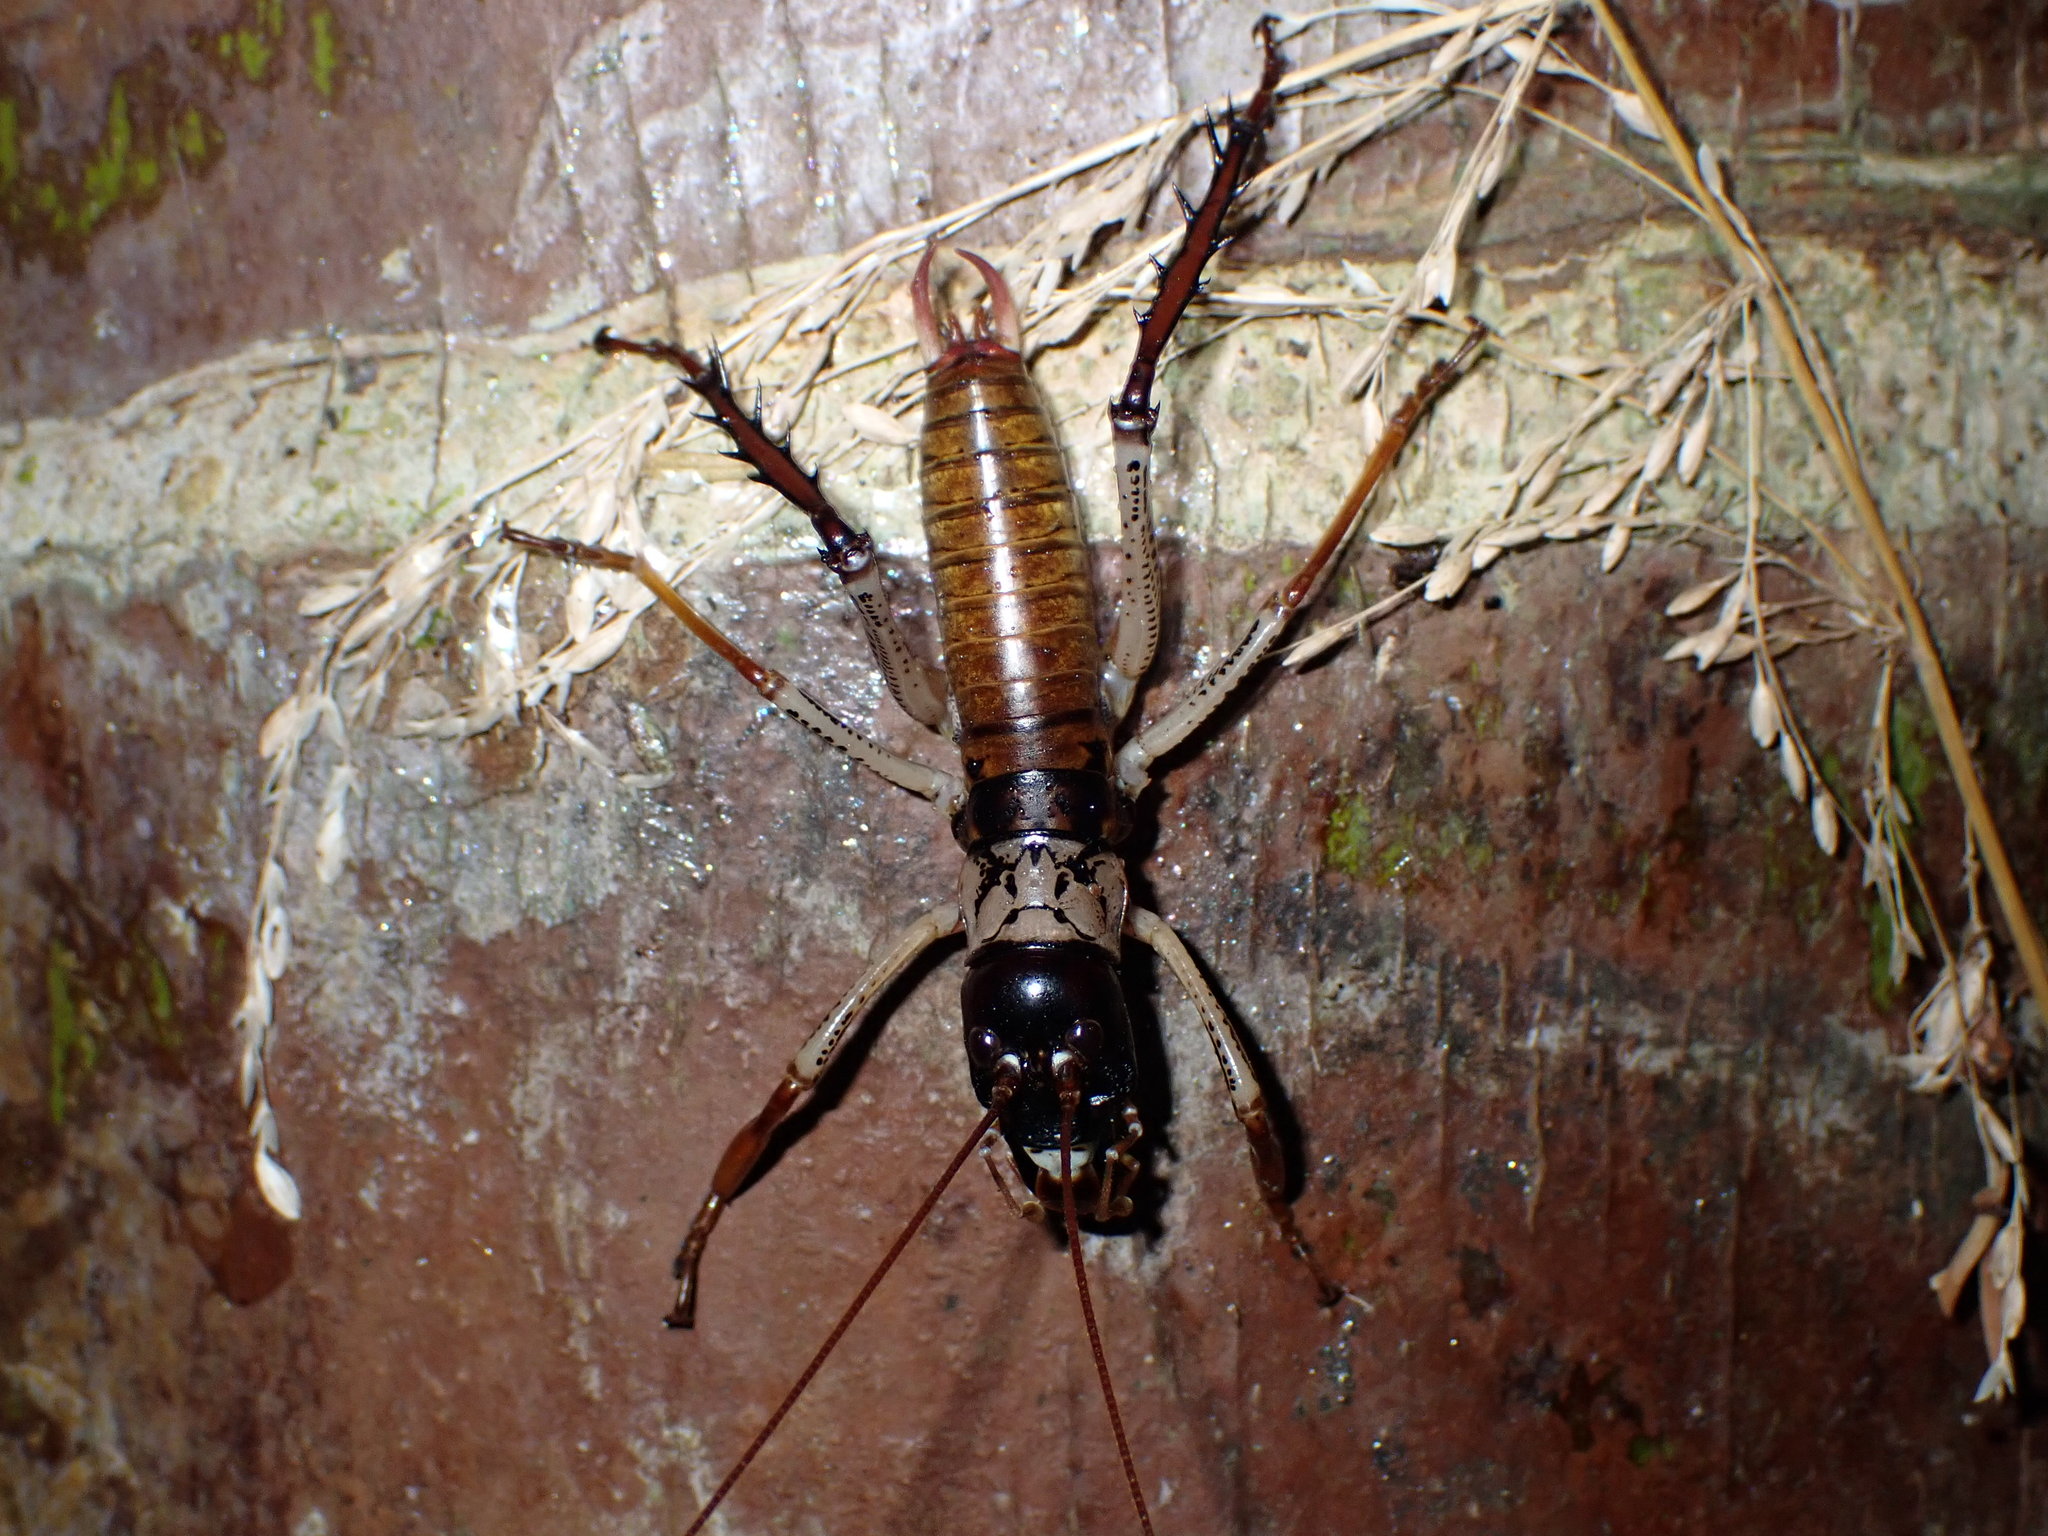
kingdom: Animalia
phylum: Arthropoda
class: Insecta
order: Orthoptera
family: Anostostomatidae
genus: Hemideina
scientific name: Hemideina thoracica
